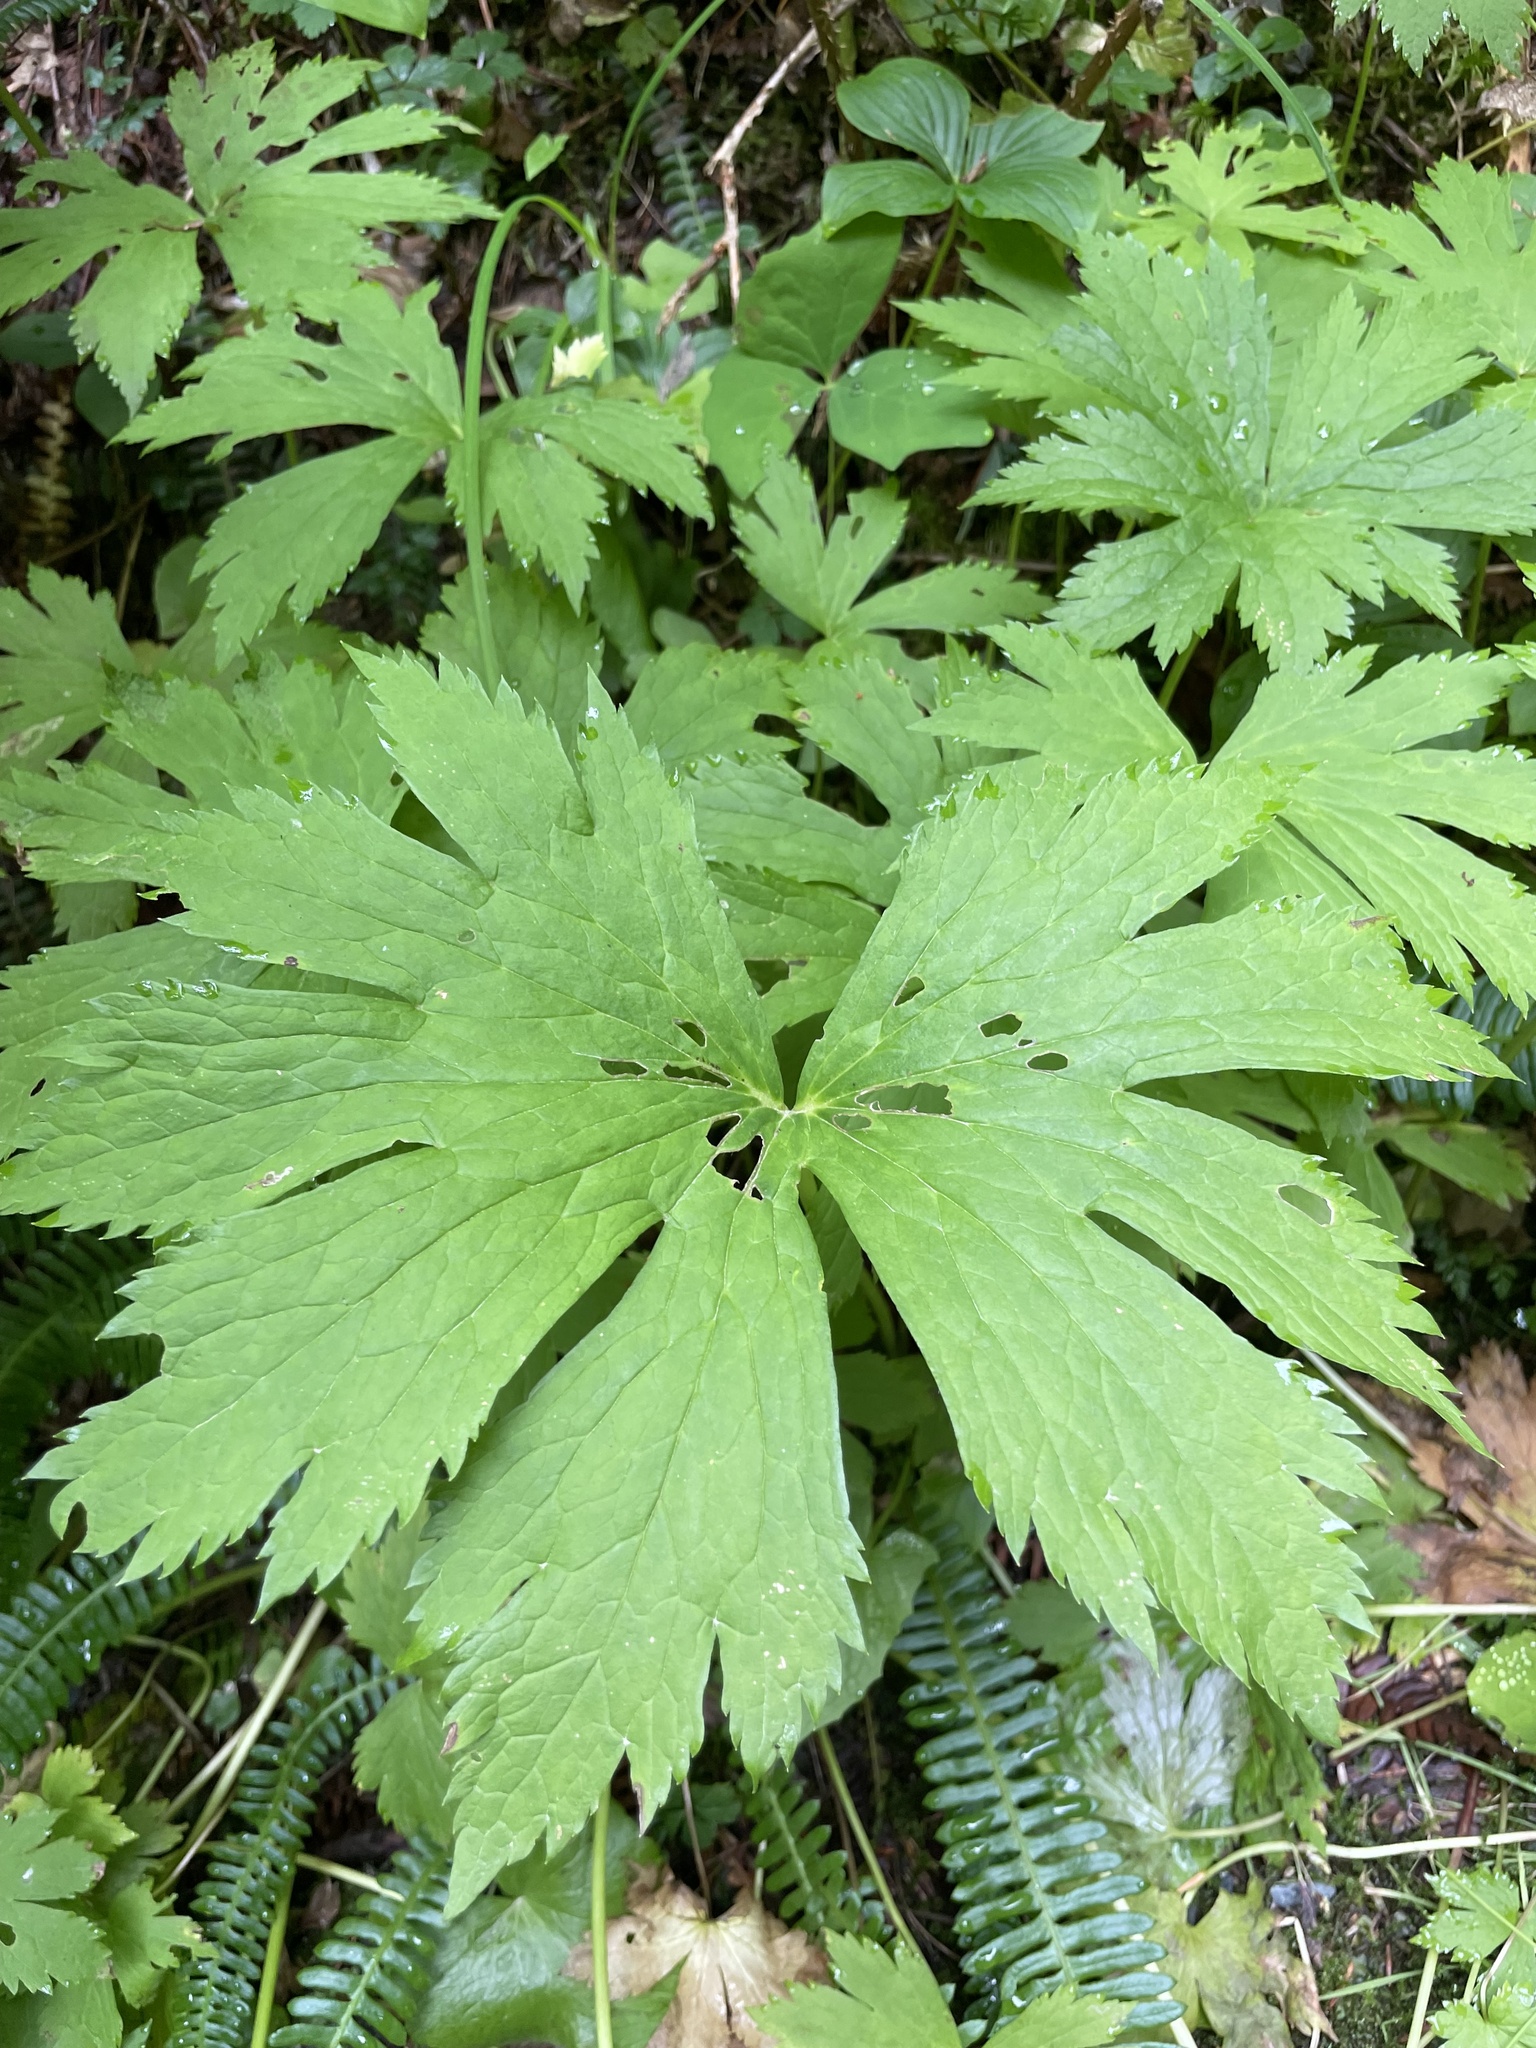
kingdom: Plantae
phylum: Tracheophyta
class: Magnoliopsida
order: Ranunculales
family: Ranunculaceae
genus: Trautvetteria
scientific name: Trautvetteria carolinensis
